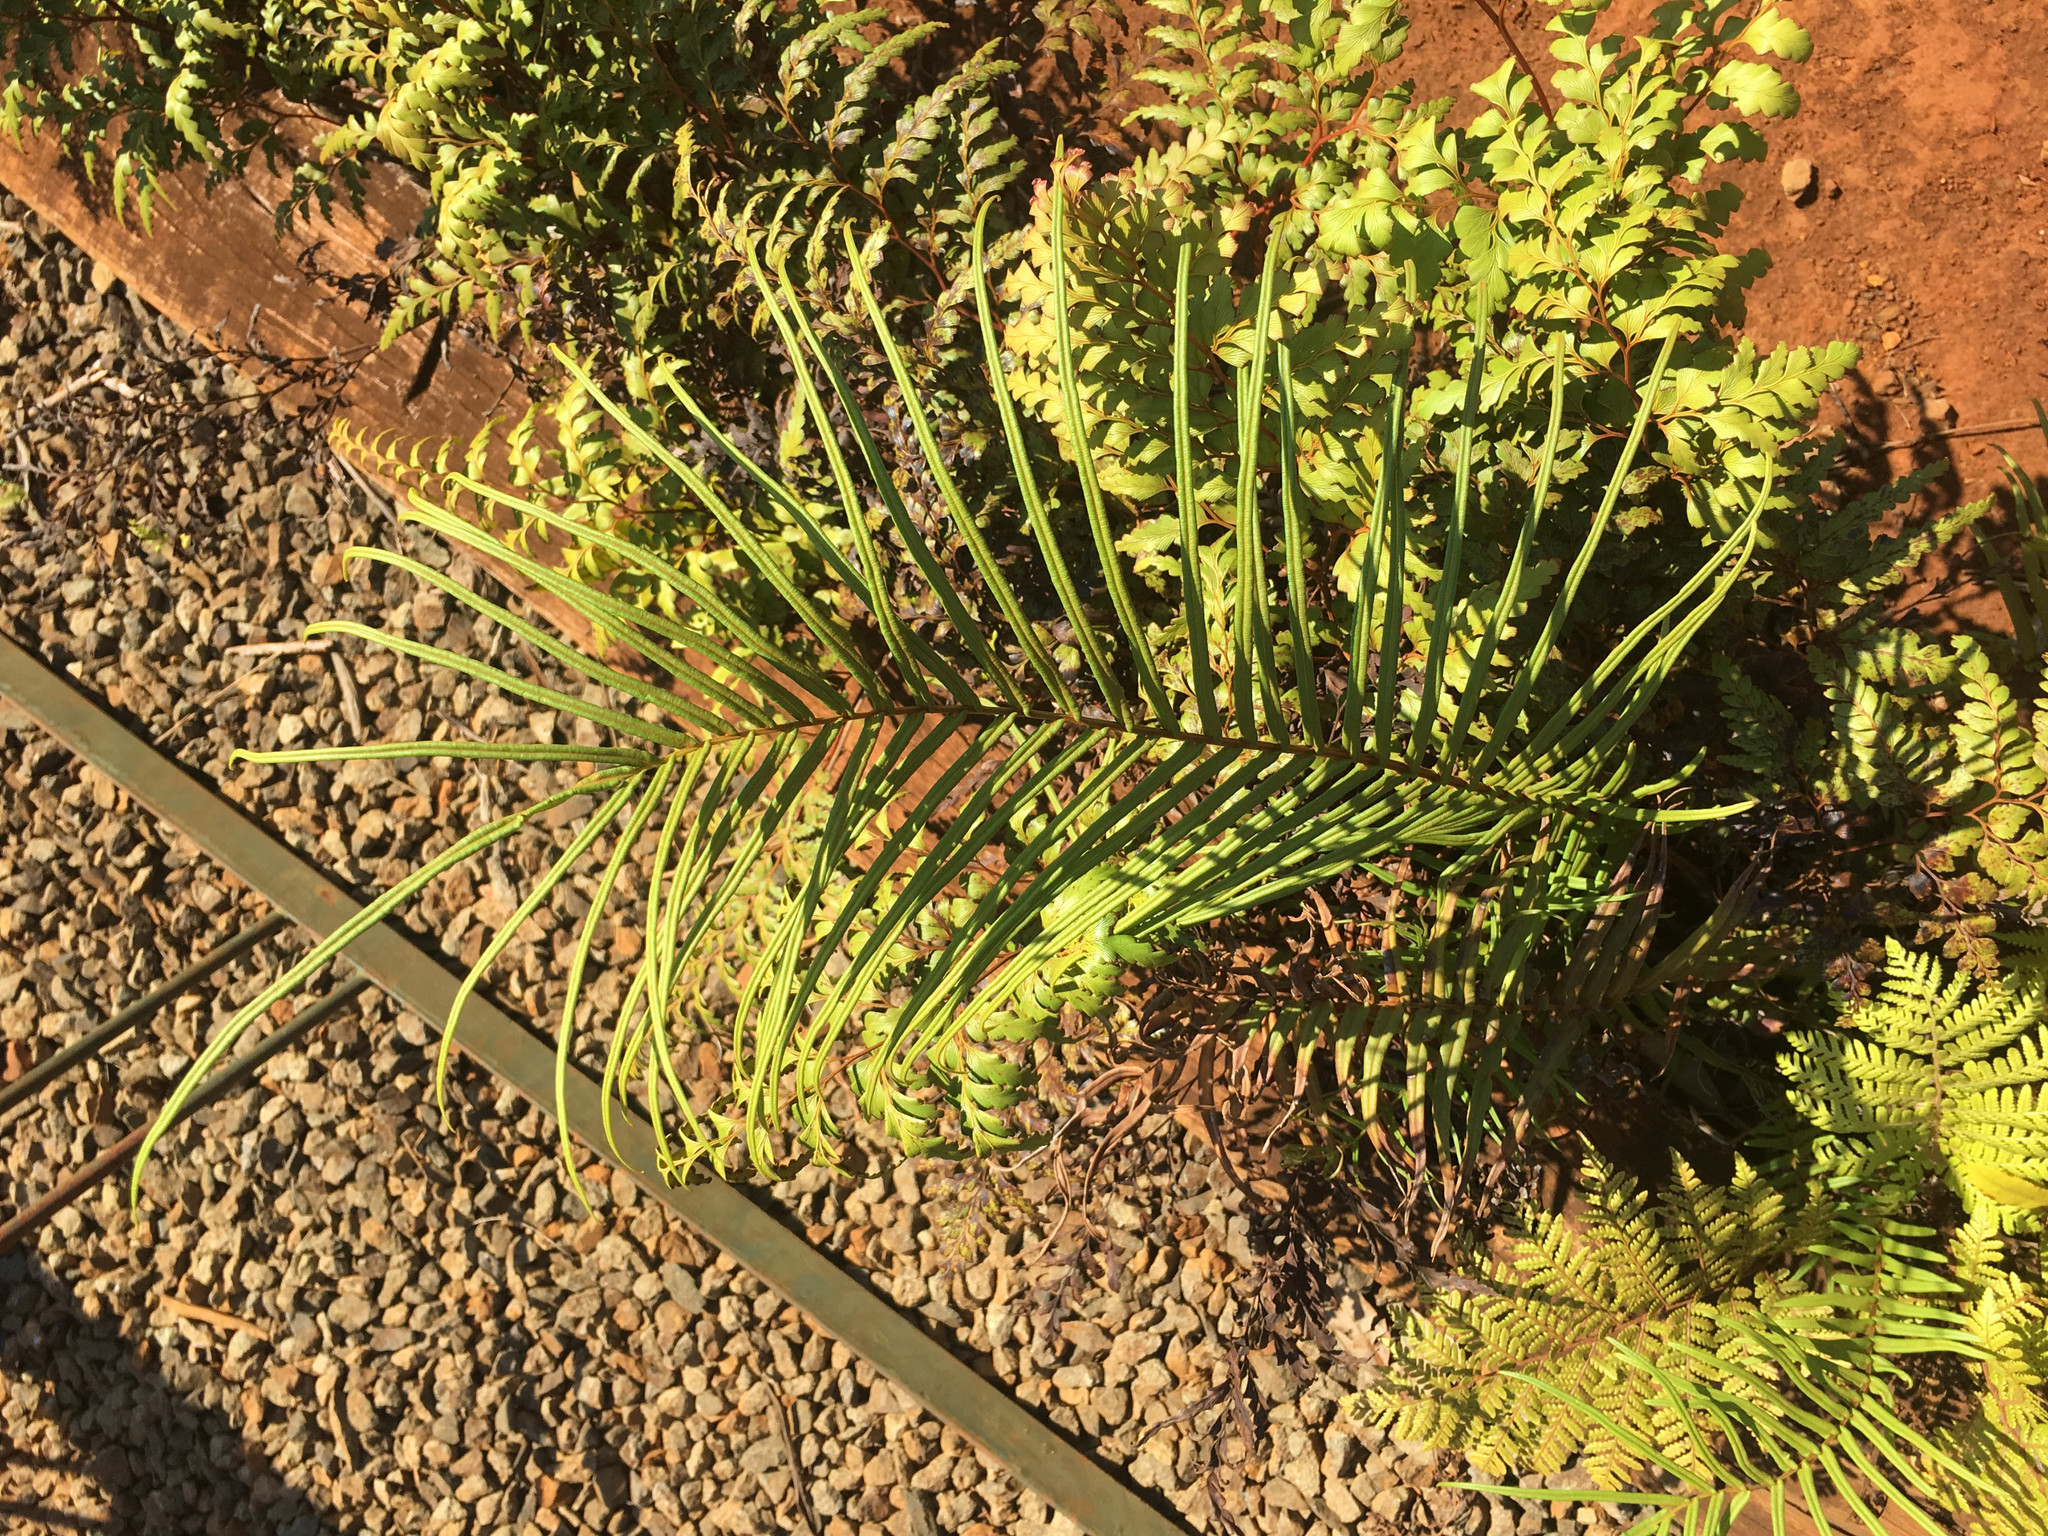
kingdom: Plantae
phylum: Tracheophyta
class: Polypodiopsida
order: Polypodiales
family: Pteridaceae
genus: Pteris
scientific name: Pteris vittata
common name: Ladder brake
